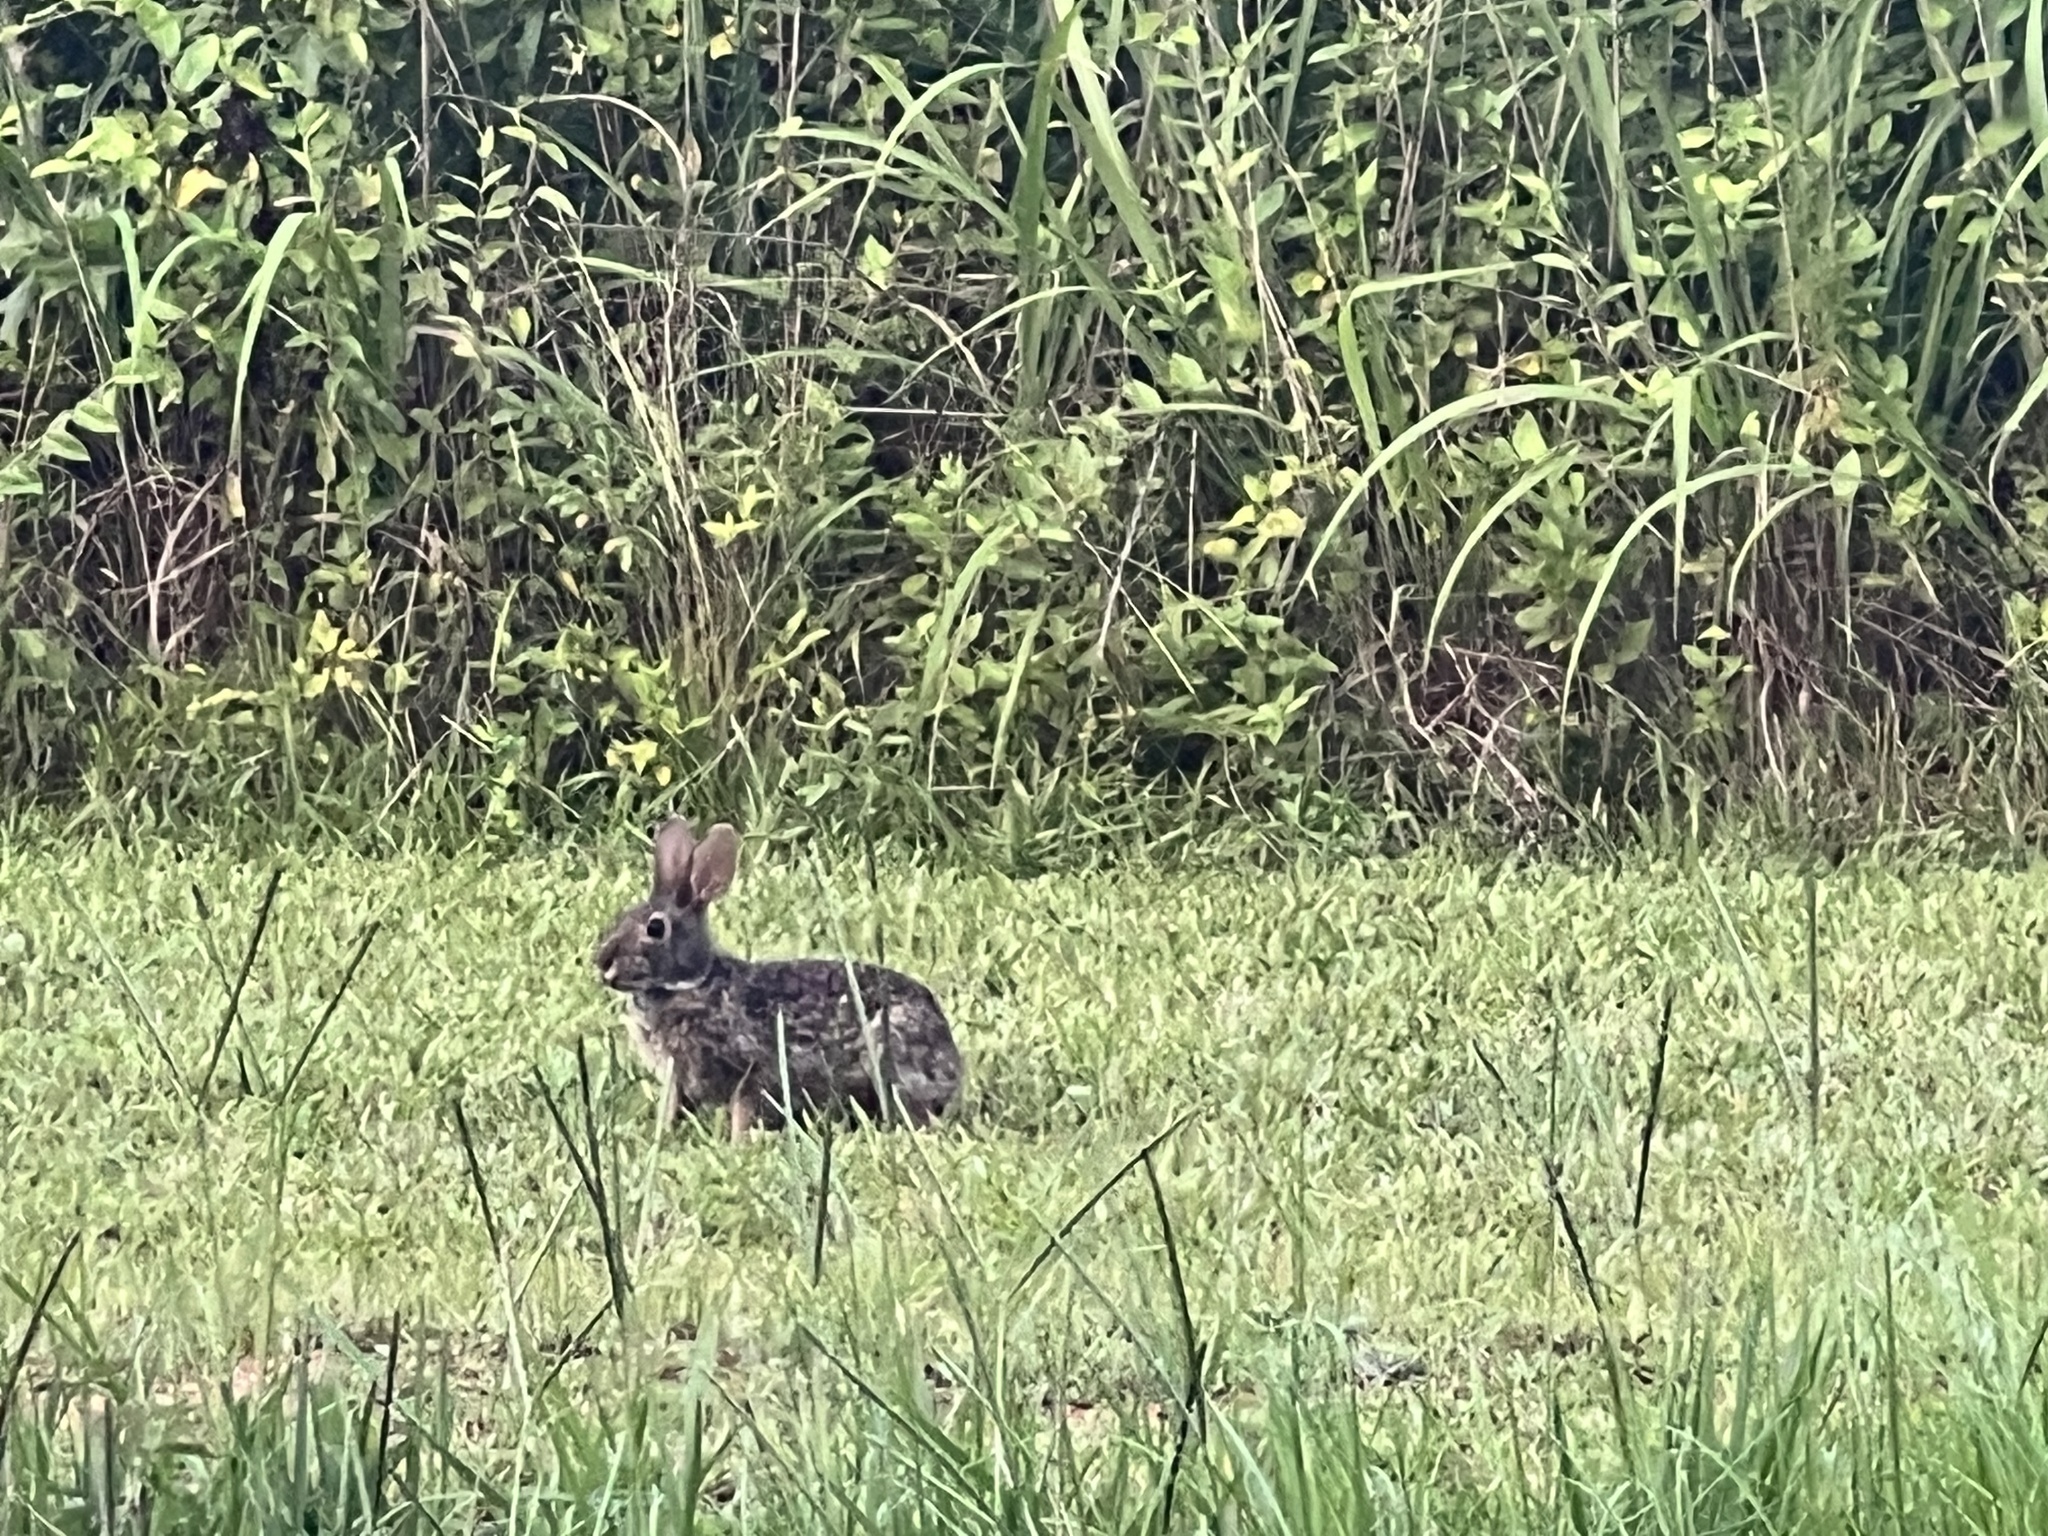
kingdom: Animalia
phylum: Chordata
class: Mammalia
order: Lagomorpha
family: Leporidae
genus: Sylvilagus
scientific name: Sylvilagus floridanus
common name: Eastern cottontail
